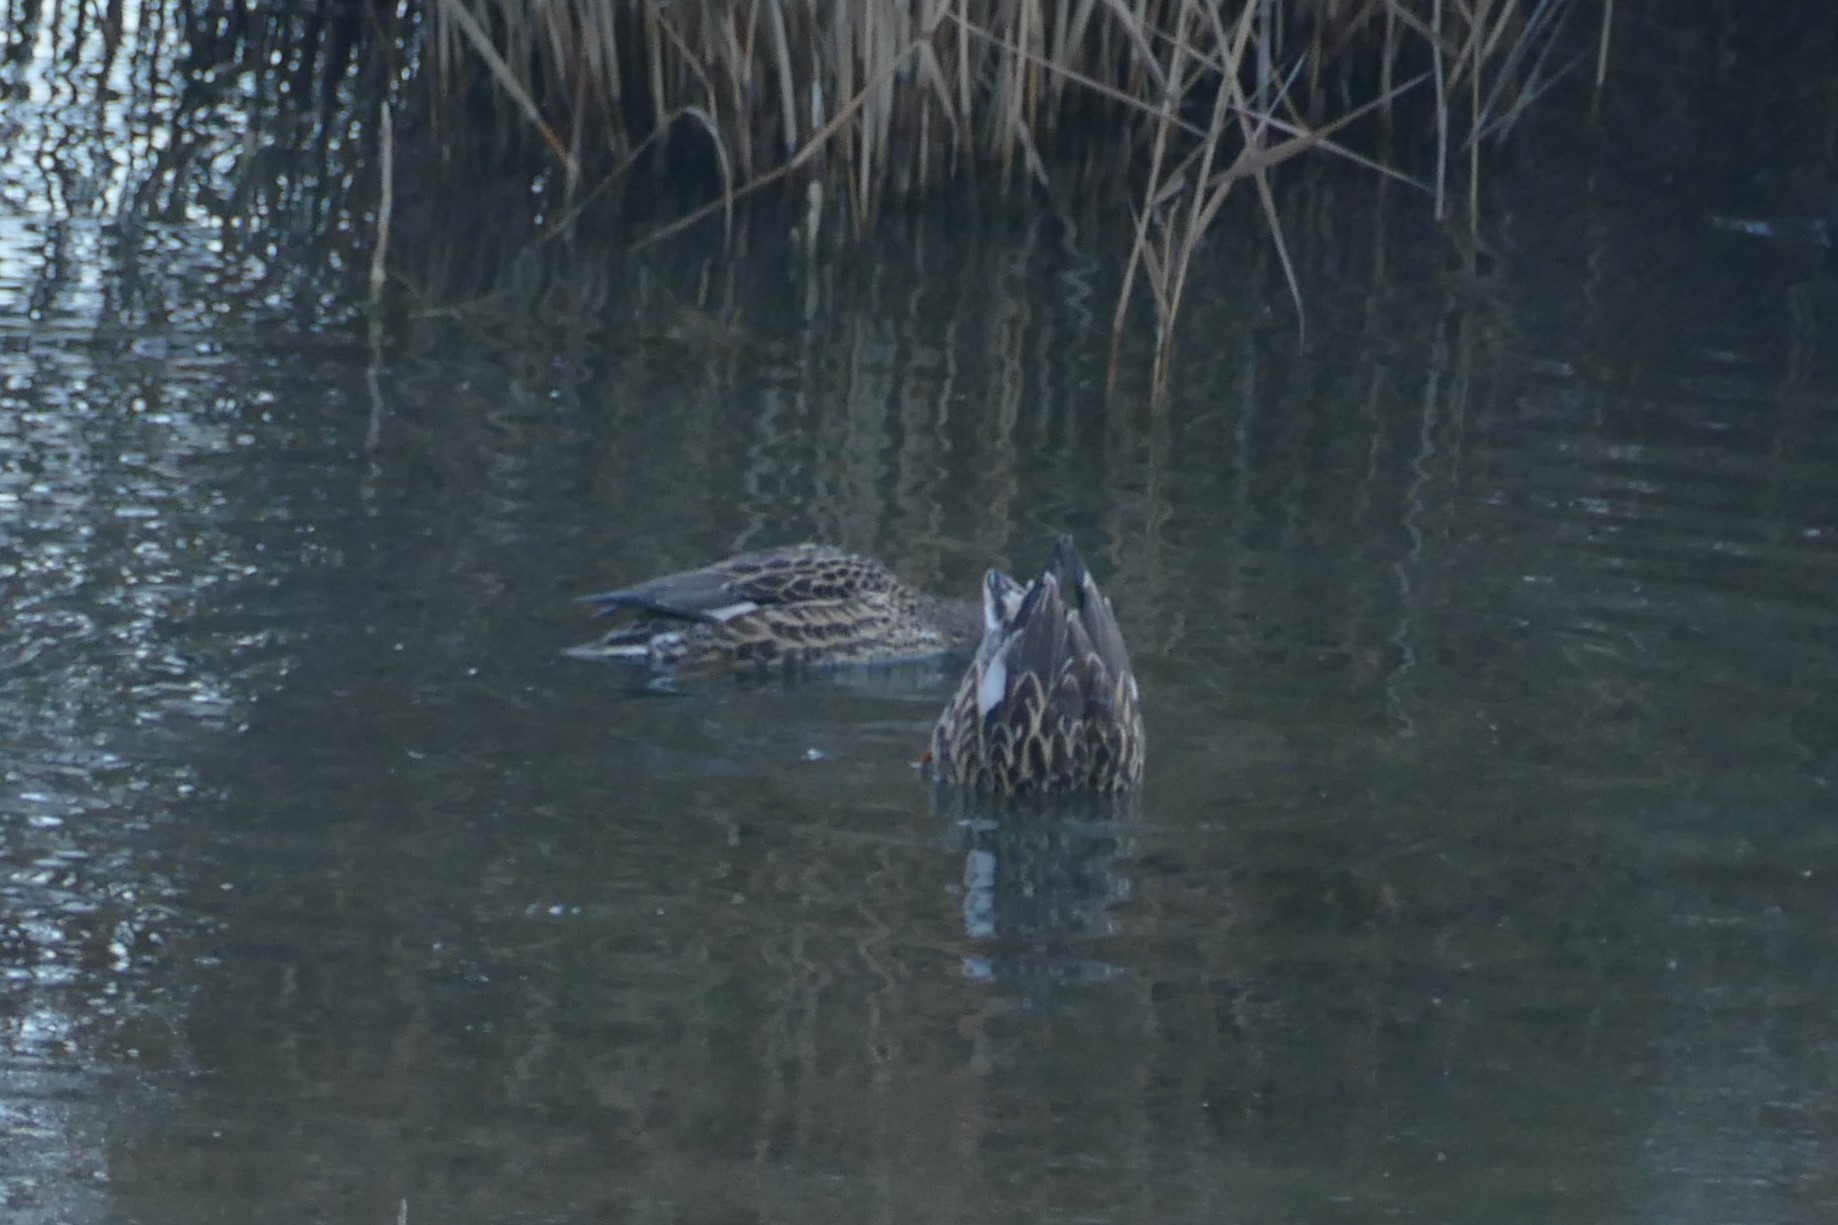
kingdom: Animalia
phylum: Chordata
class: Aves
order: Anseriformes
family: Anatidae
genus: Mareca
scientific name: Mareca strepera
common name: Gadwall
